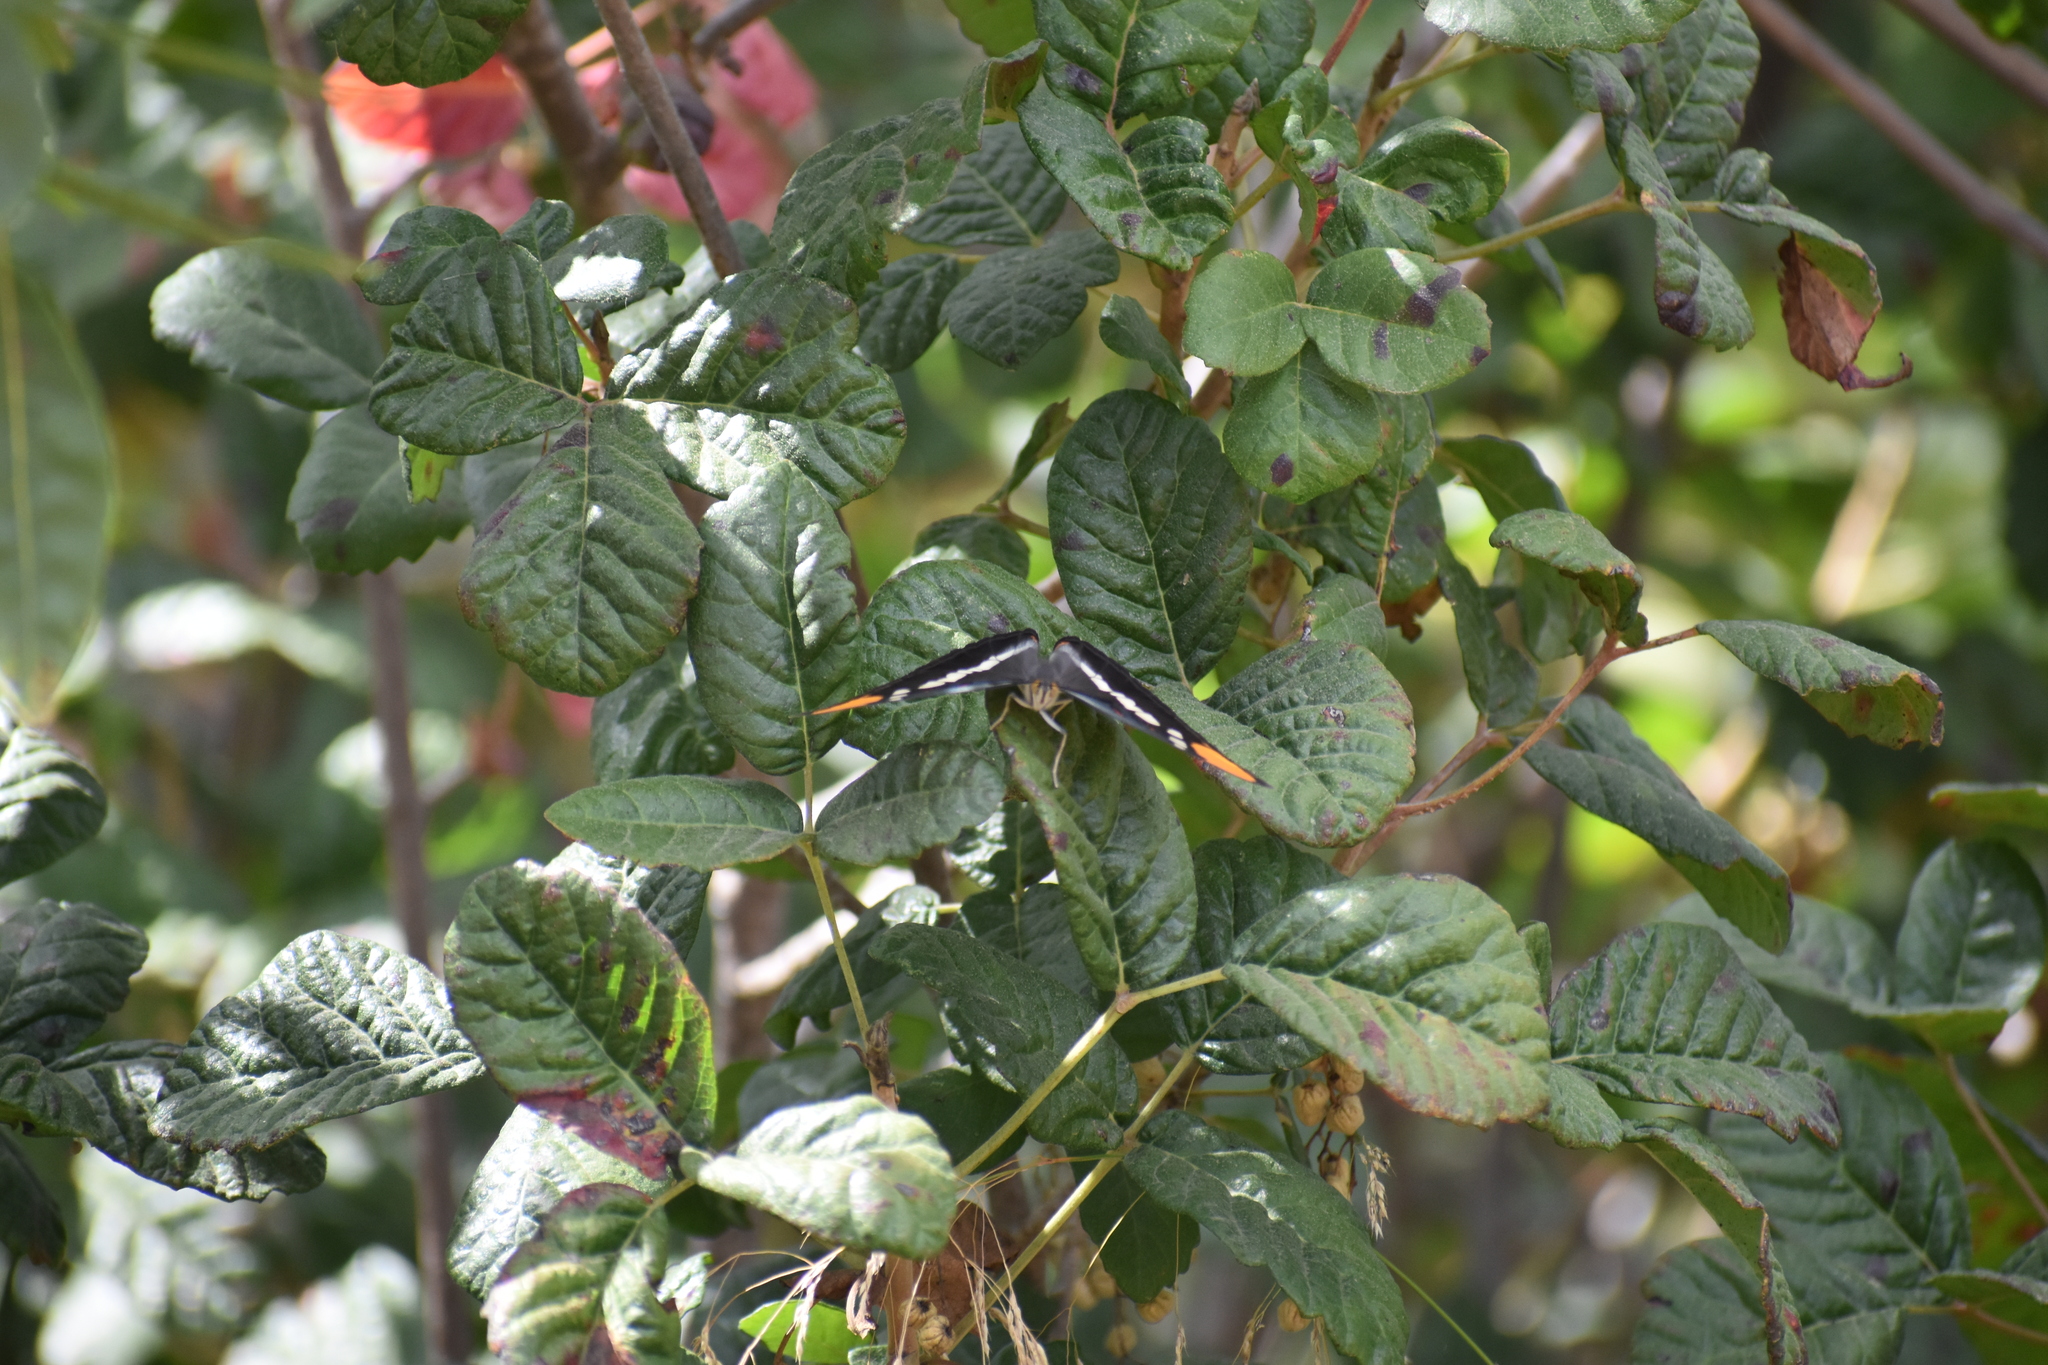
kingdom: Animalia
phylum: Arthropoda
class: Insecta
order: Lepidoptera
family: Nymphalidae
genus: Limenitis
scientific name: Limenitis bredowii
